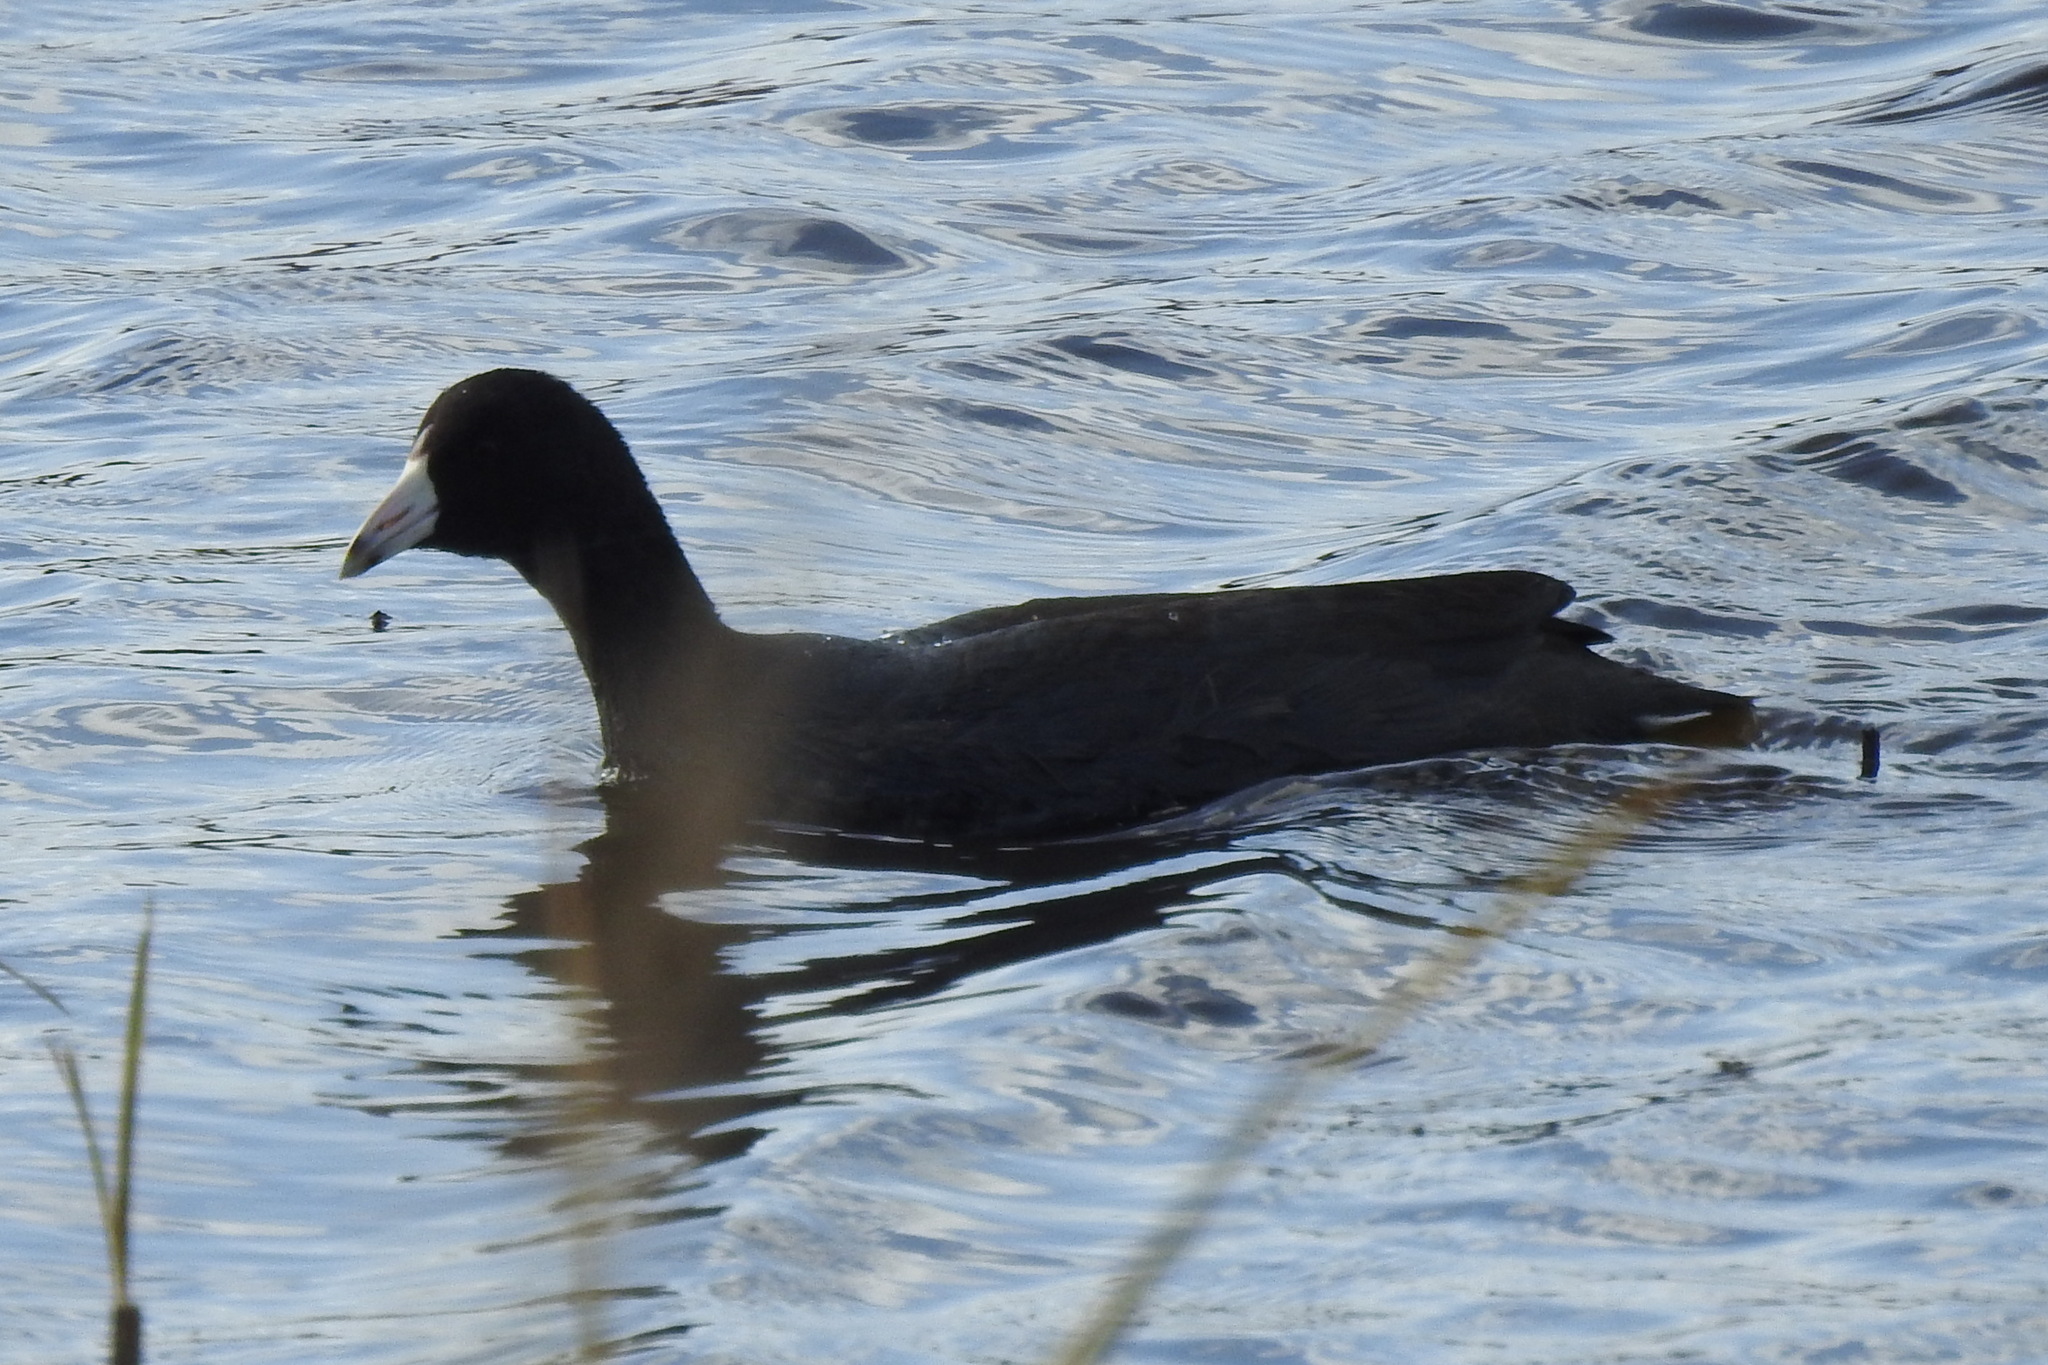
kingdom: Animalia
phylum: Chordata
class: Aves
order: Gruiformes
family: Rallidae
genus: Fulica
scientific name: Fulica americana
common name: American coot
